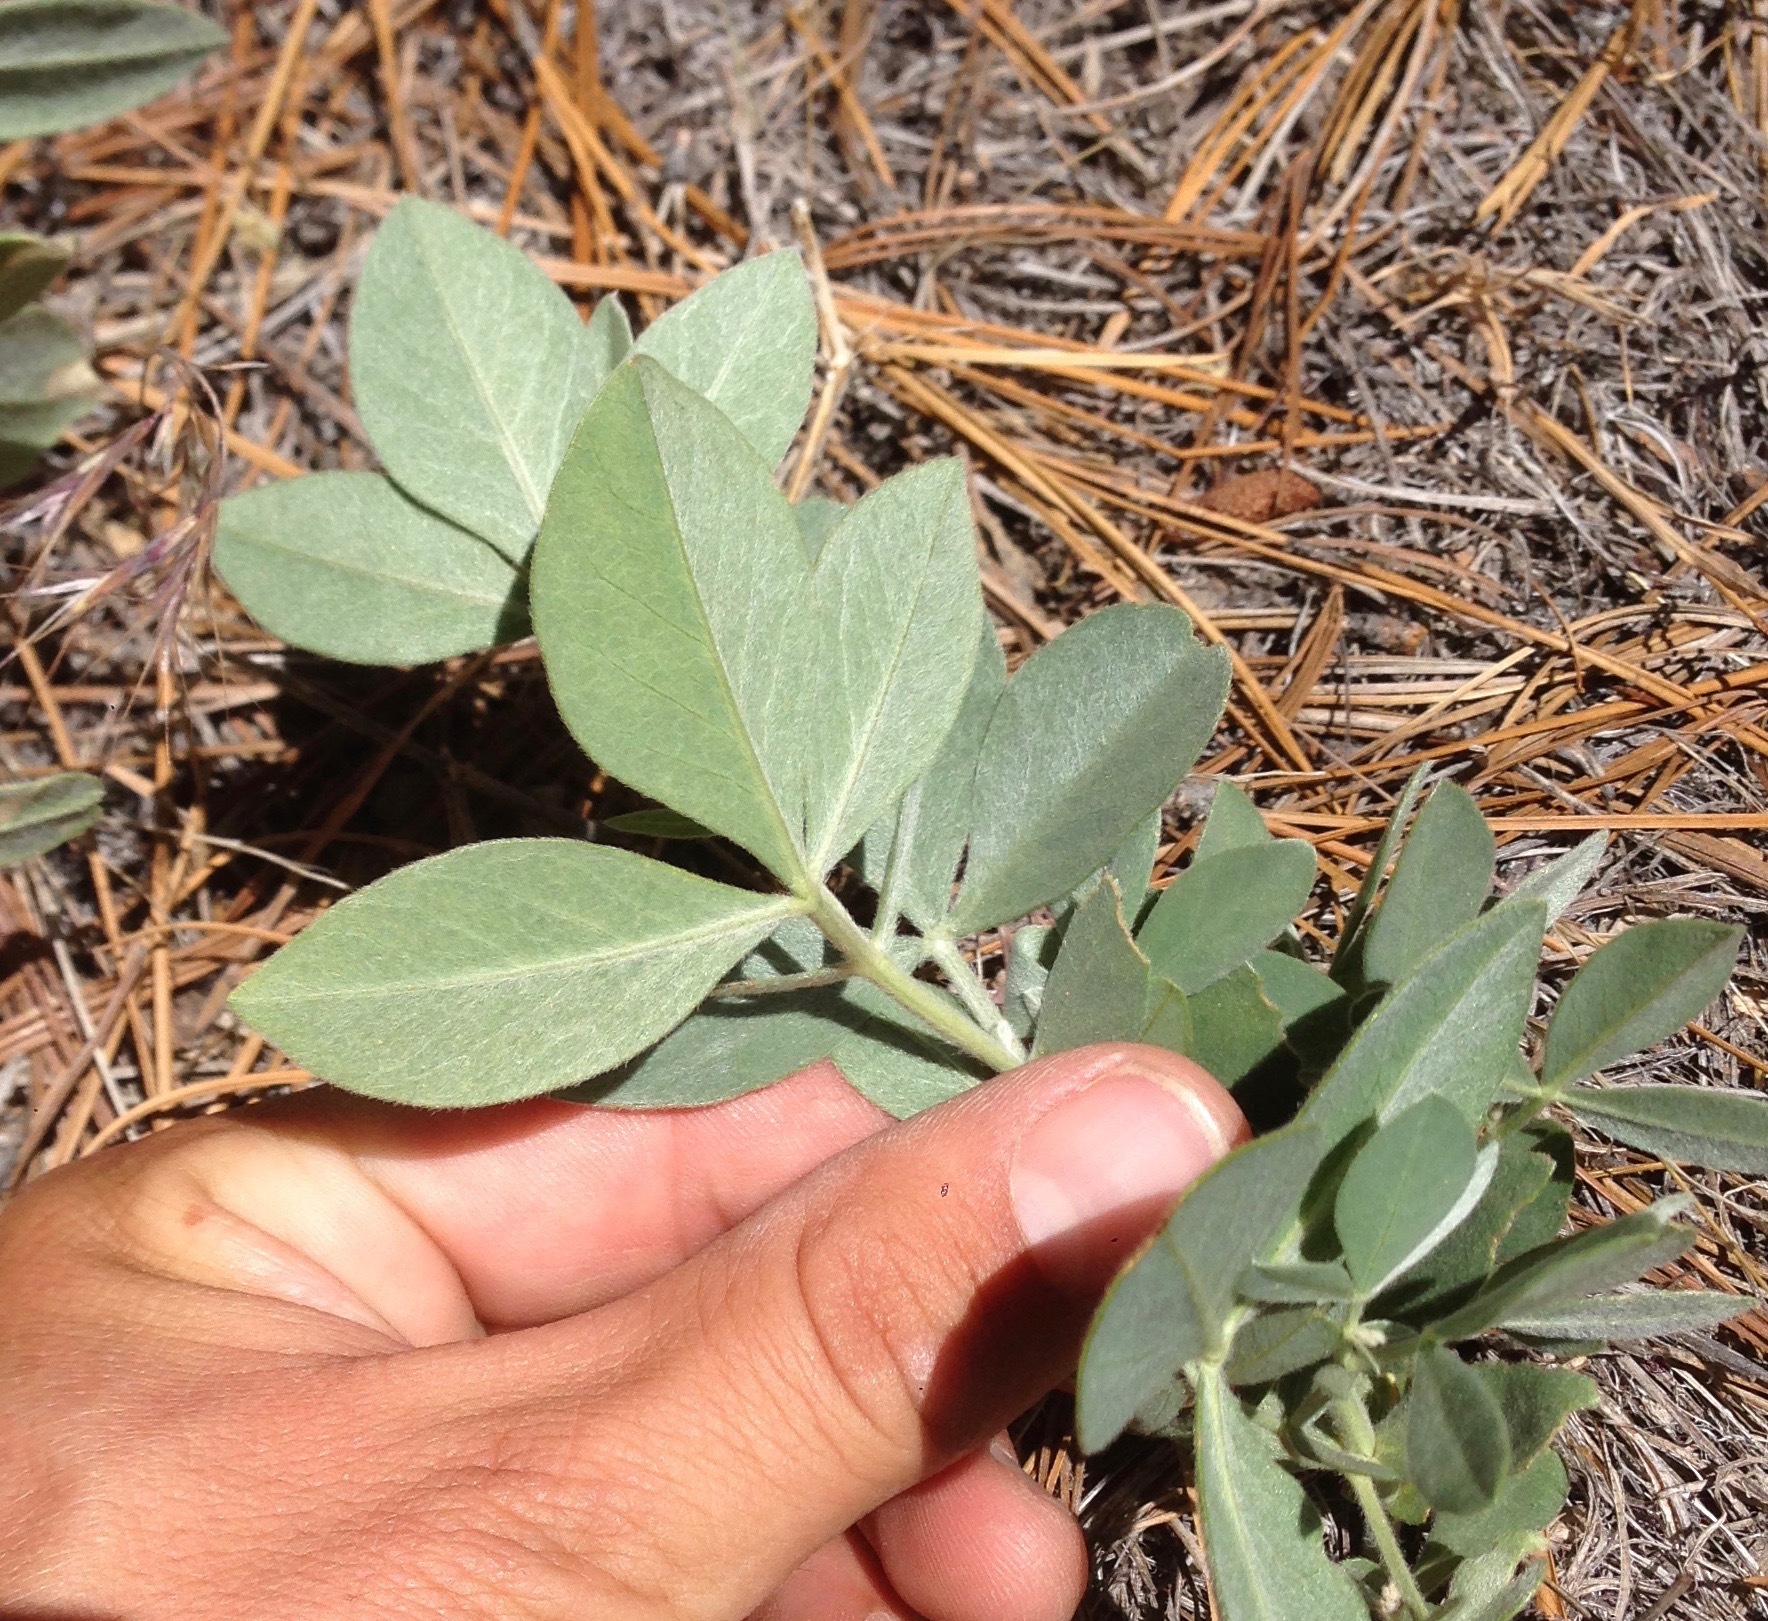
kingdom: Plantae
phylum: Tracheophyta
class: Magnoliopsida
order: Fabales
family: Fabaceae
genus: Thermopsis
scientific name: Thermopsis californica
